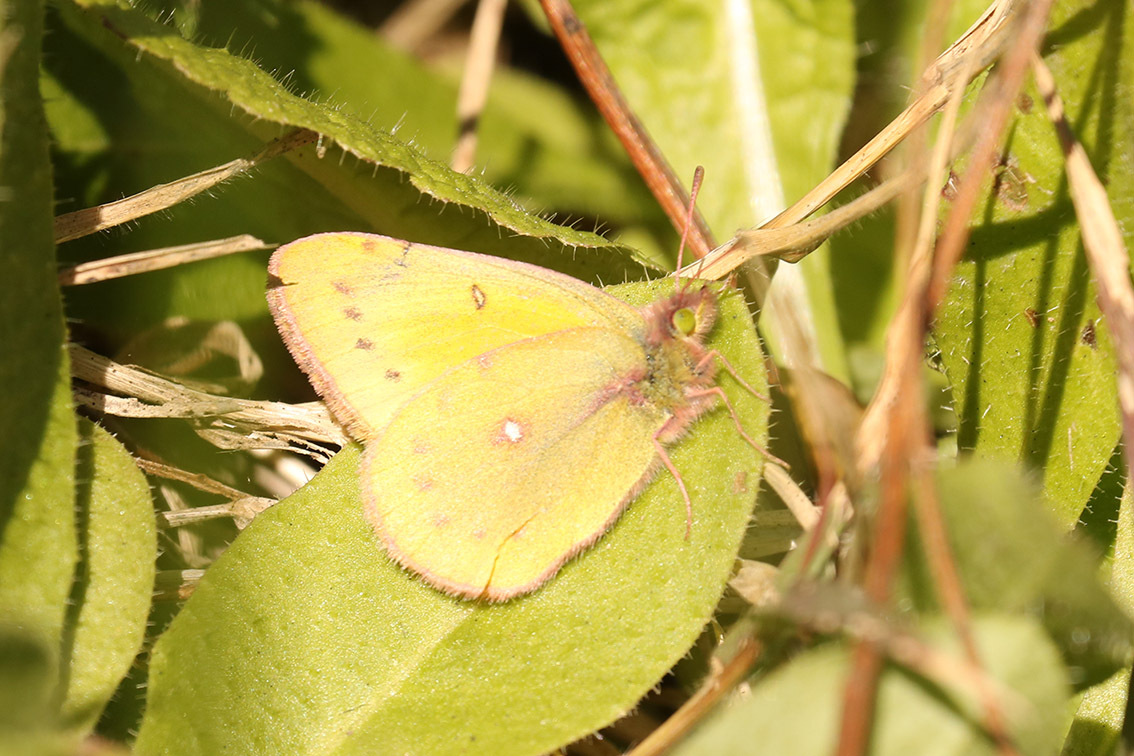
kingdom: Animalia
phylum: Arthropoda
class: Insecta
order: Lepidoptera
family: Pieridae
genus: Colias
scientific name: Colias lesbia
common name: Lesbia clouded yellow
